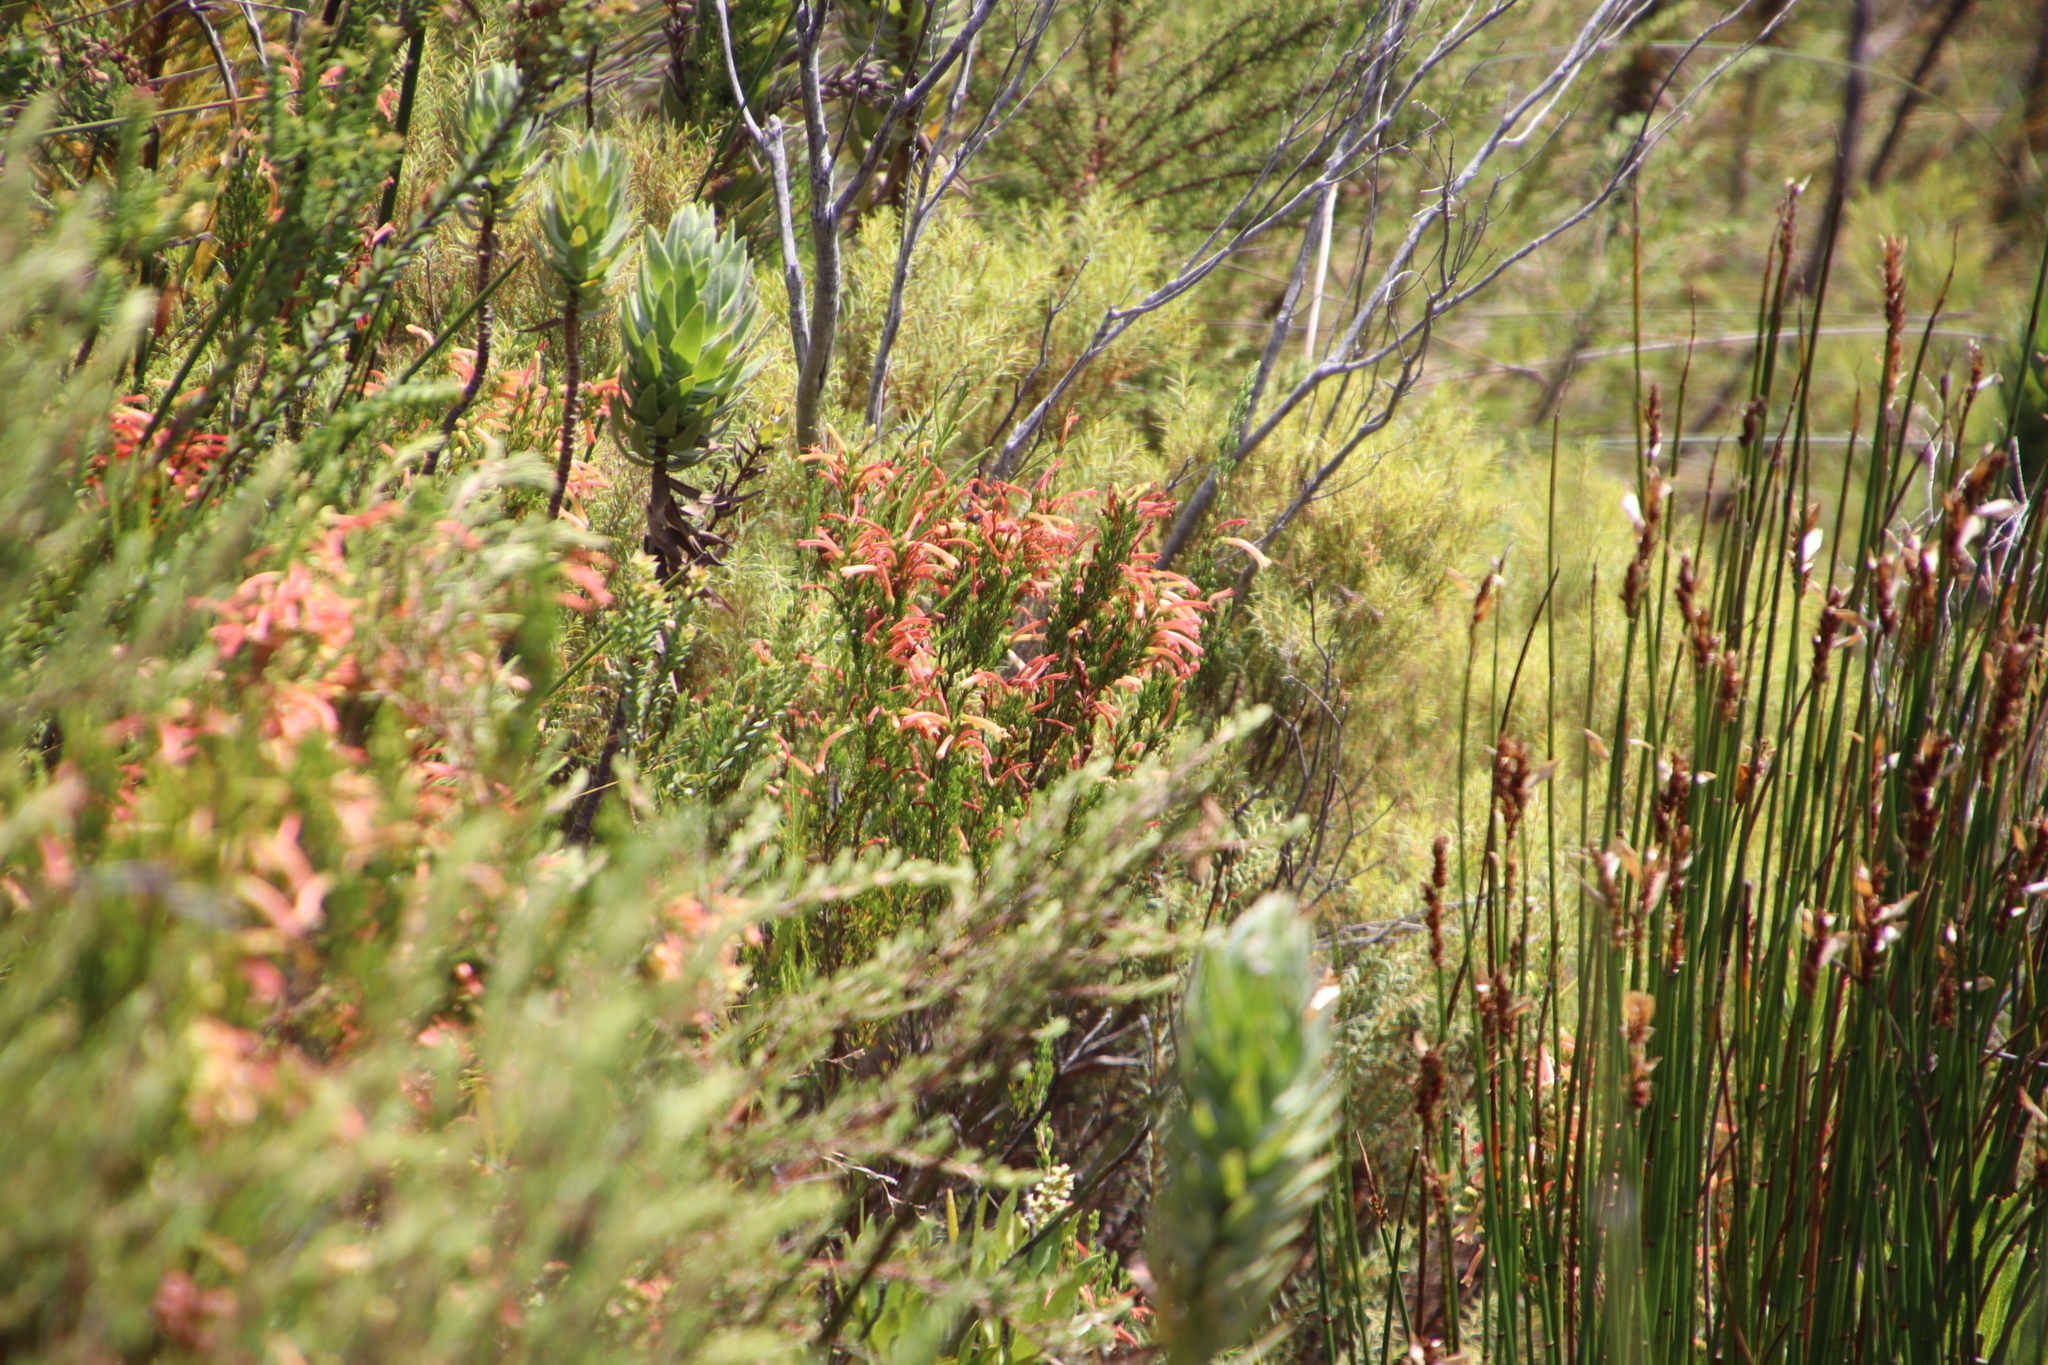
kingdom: Plantae
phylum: Tracheophyta
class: Magnoliopsida
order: Ericales
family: Ericaceae
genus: Erica
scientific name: Erica curviflora
